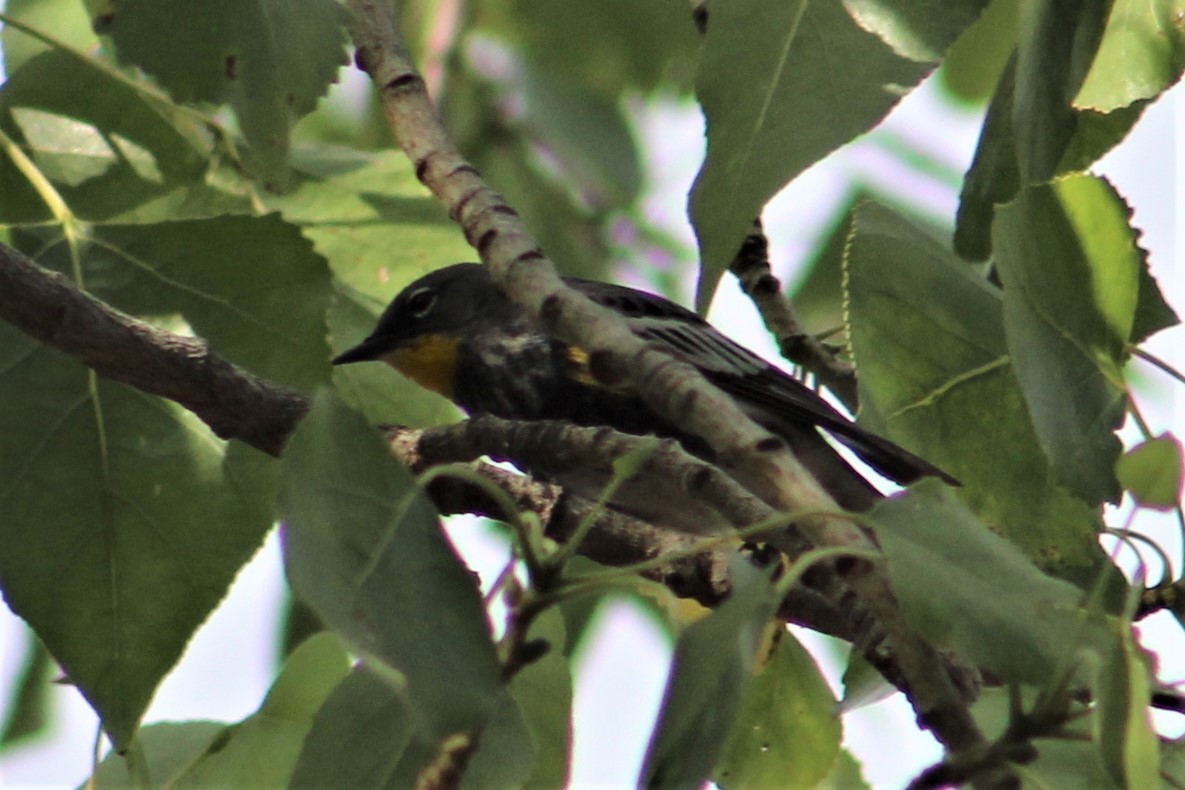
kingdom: Animalia
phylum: Chordata
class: Aves
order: Passeriformes
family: Parulidae
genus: Setophaga
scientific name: Setophaga auduboni
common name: Audubon's warbler
